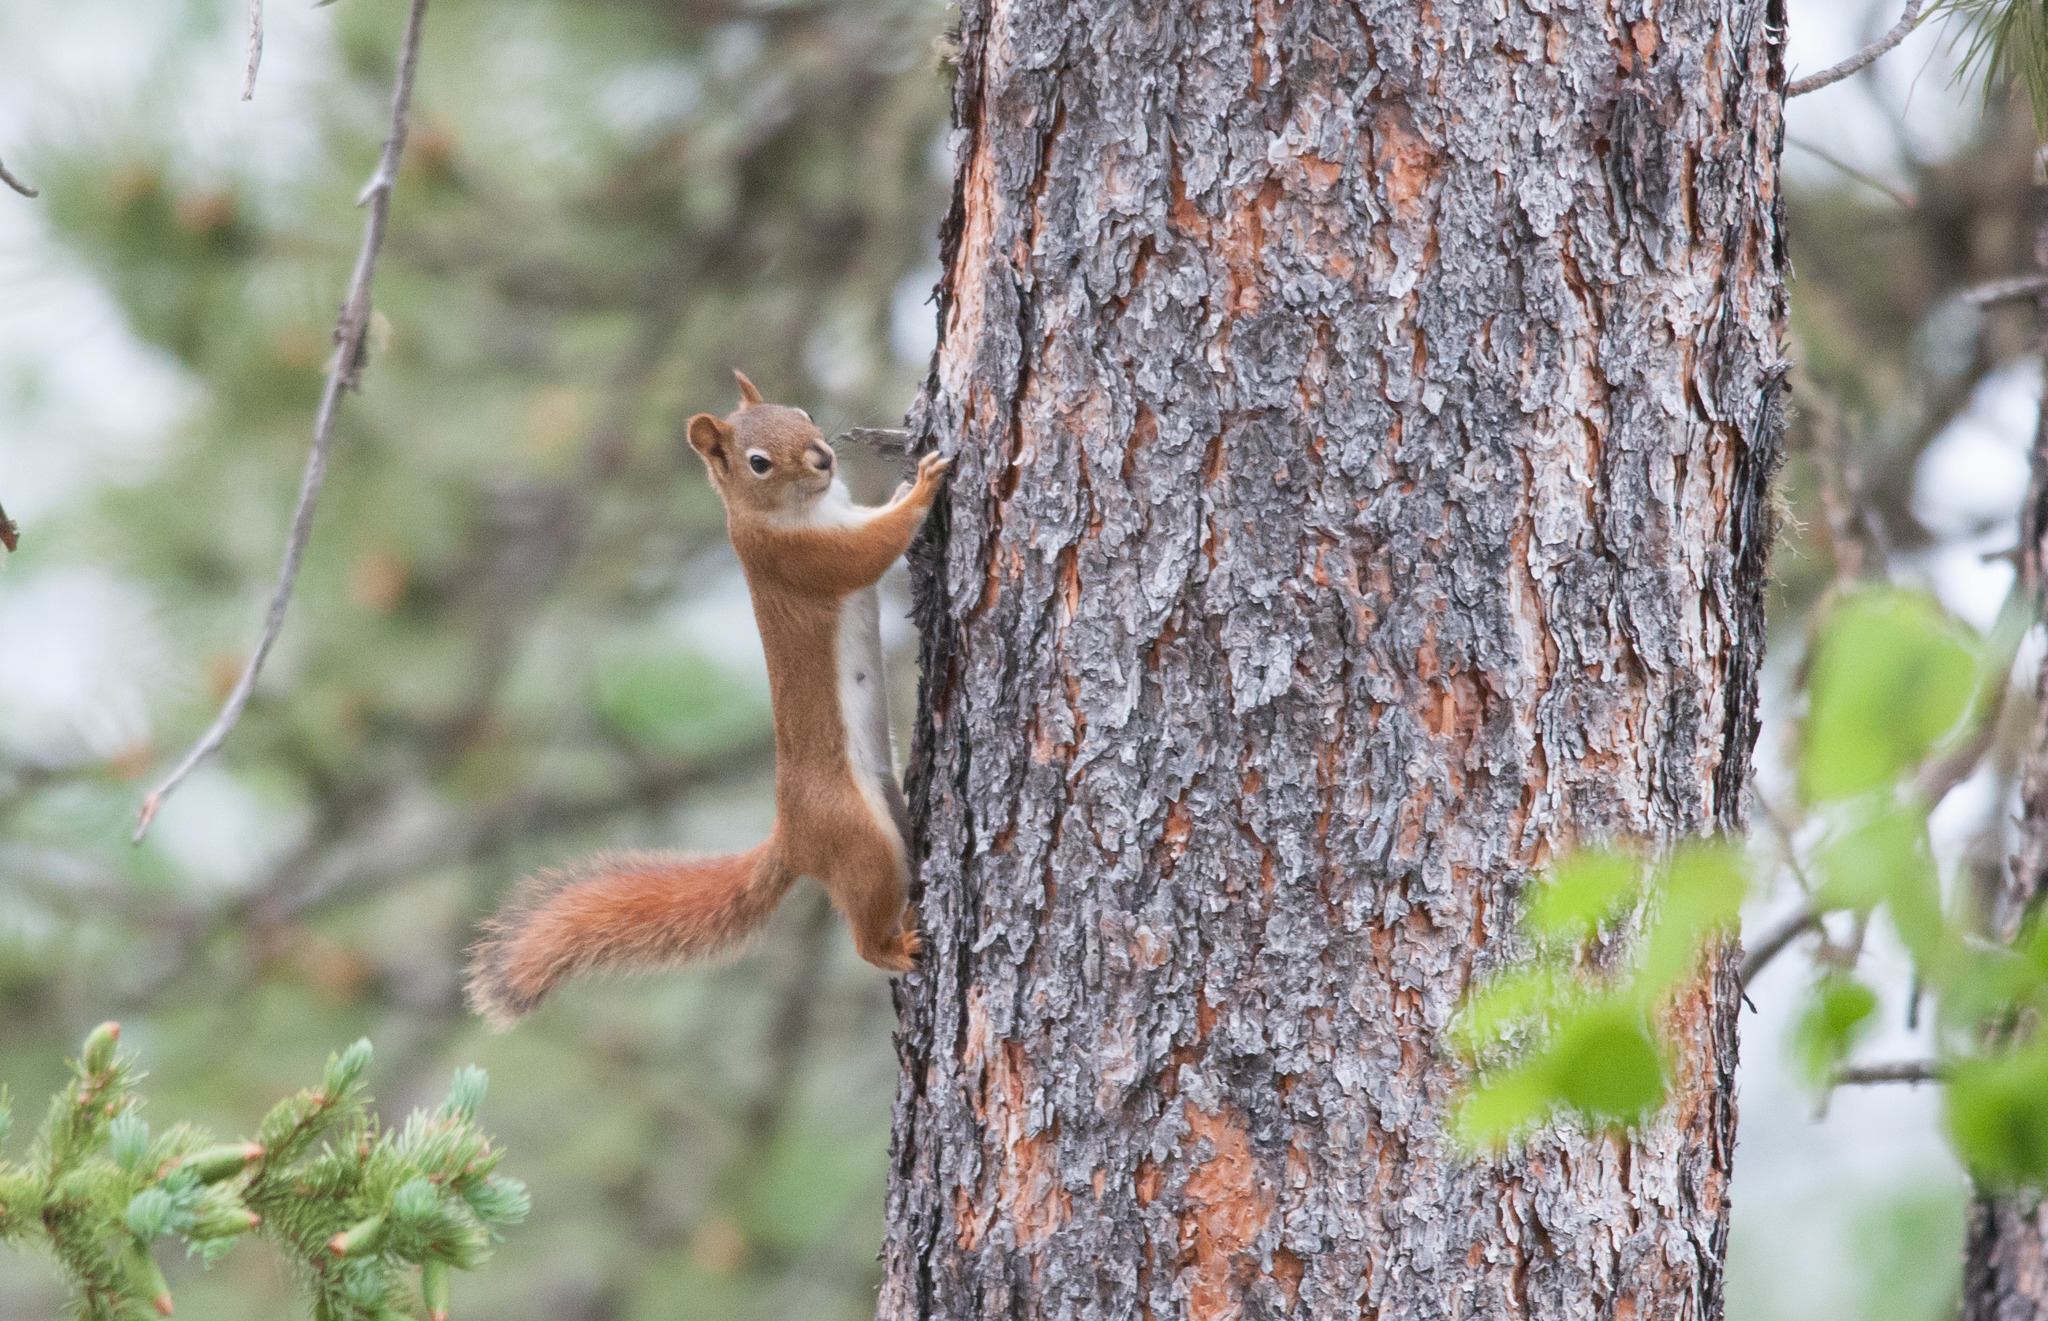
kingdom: Animalia
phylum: Chordata
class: Mammalia
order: Rodentia
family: Sciuridae
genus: Tamiasciurus
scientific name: Tamiasciurus hudsonicus
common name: Red squirrel
